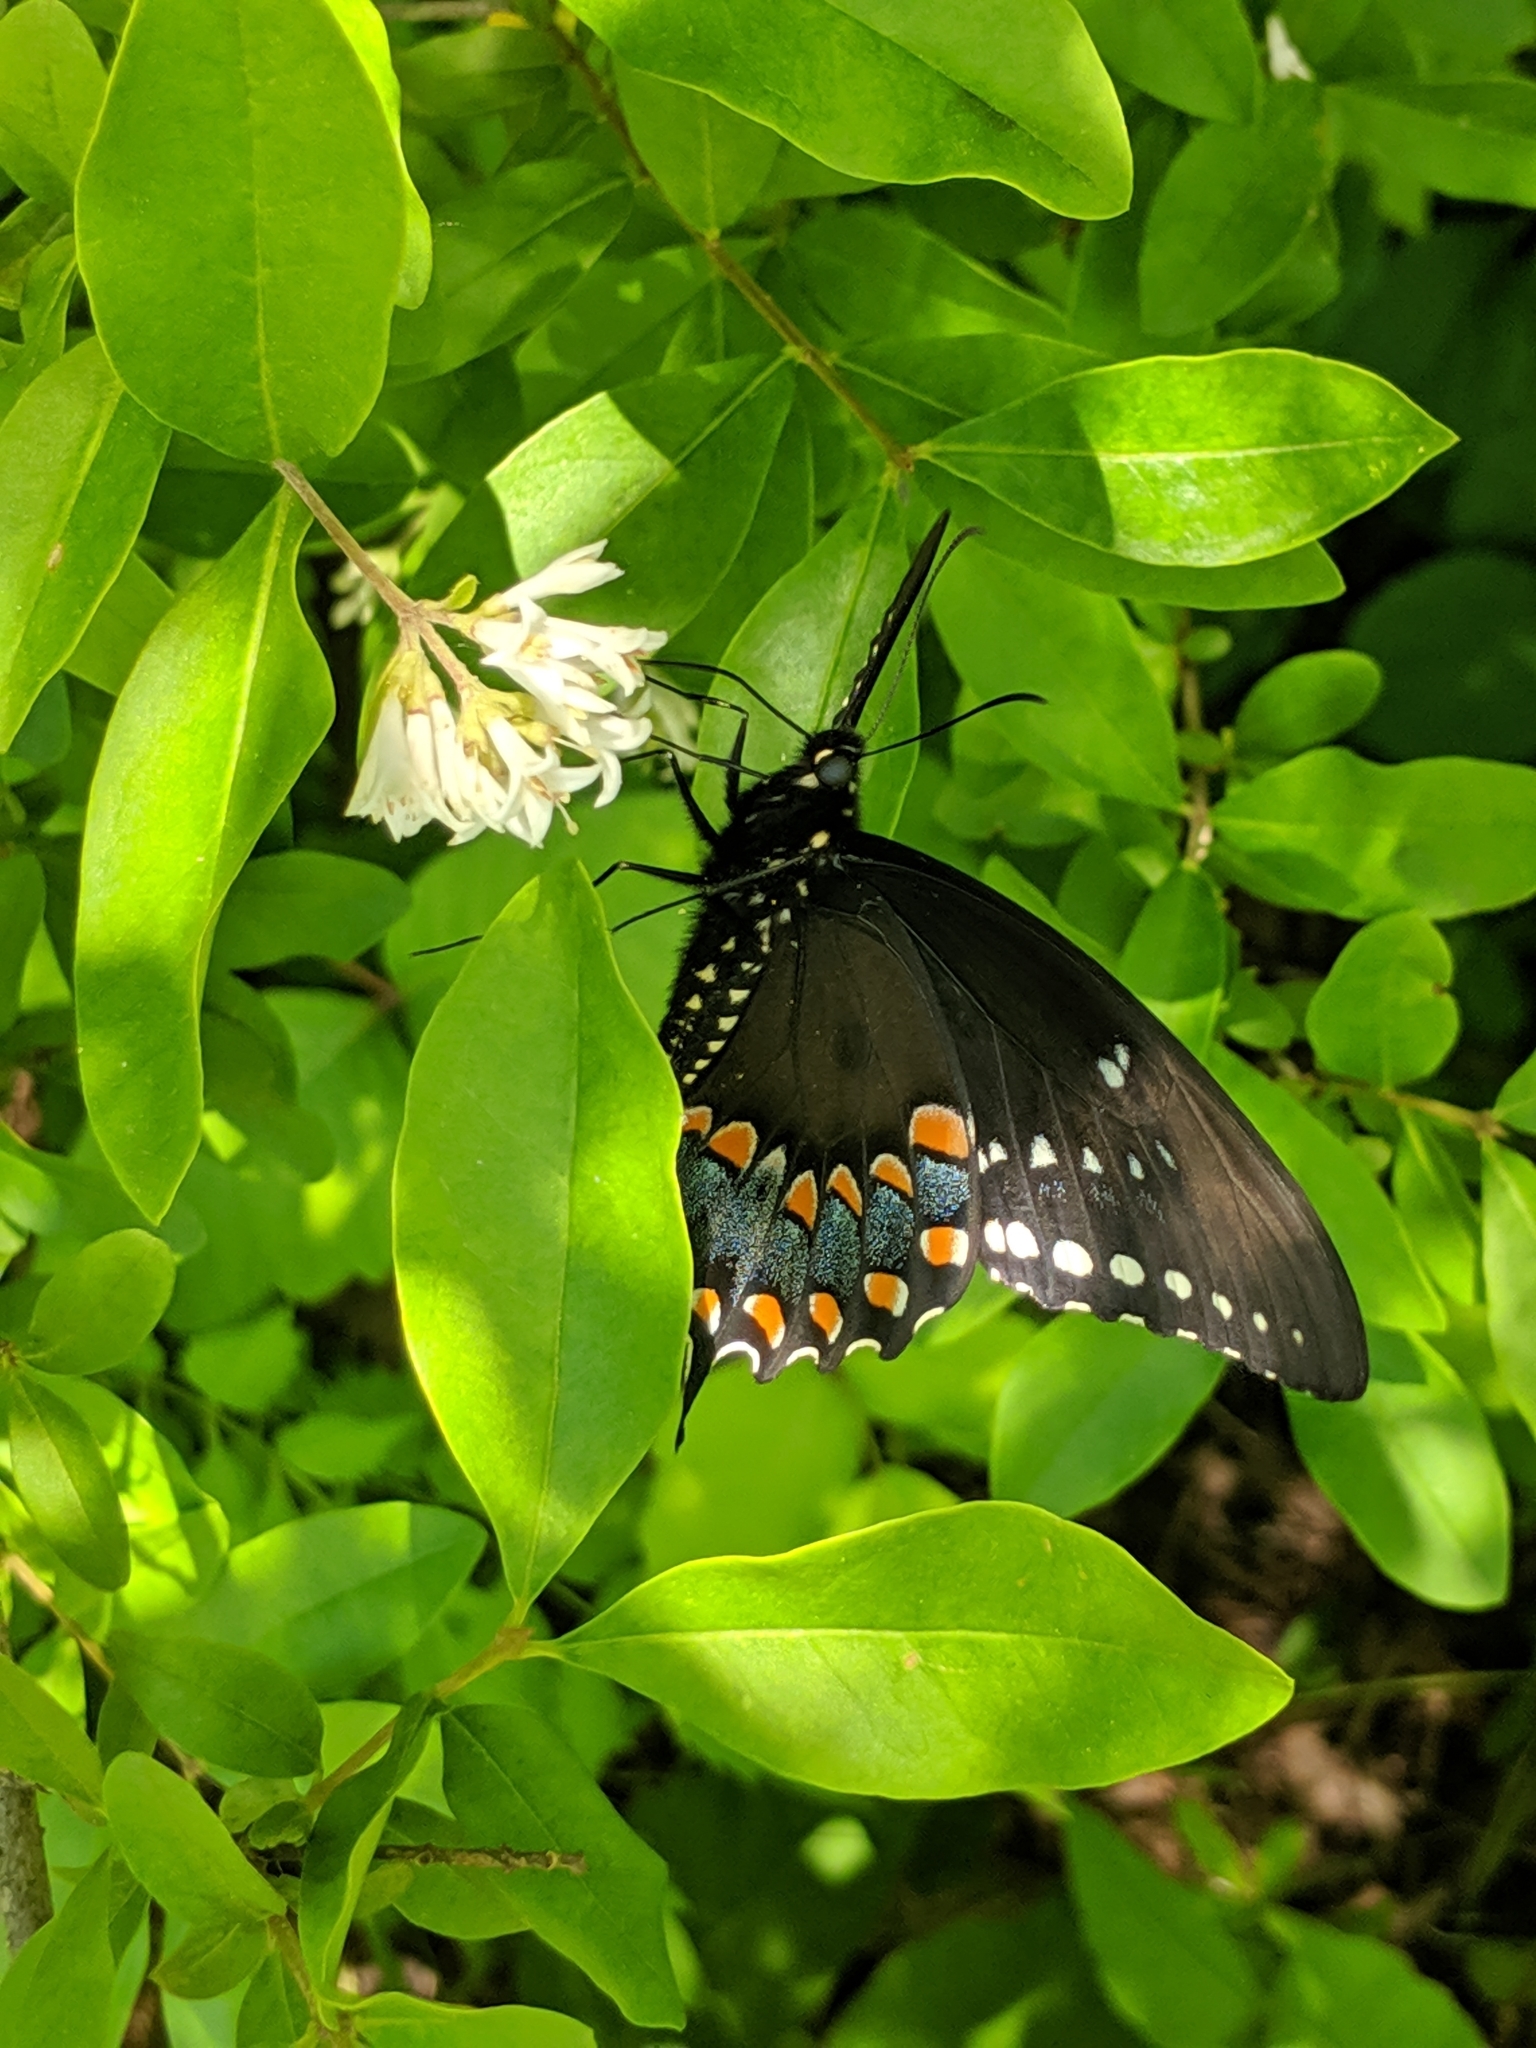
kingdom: Animalia
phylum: Arthropoda
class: Insecta
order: Lepidoptera
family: Papilionidae
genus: Papilio
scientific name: Papilio troilus
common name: Spicebush swallowtail
